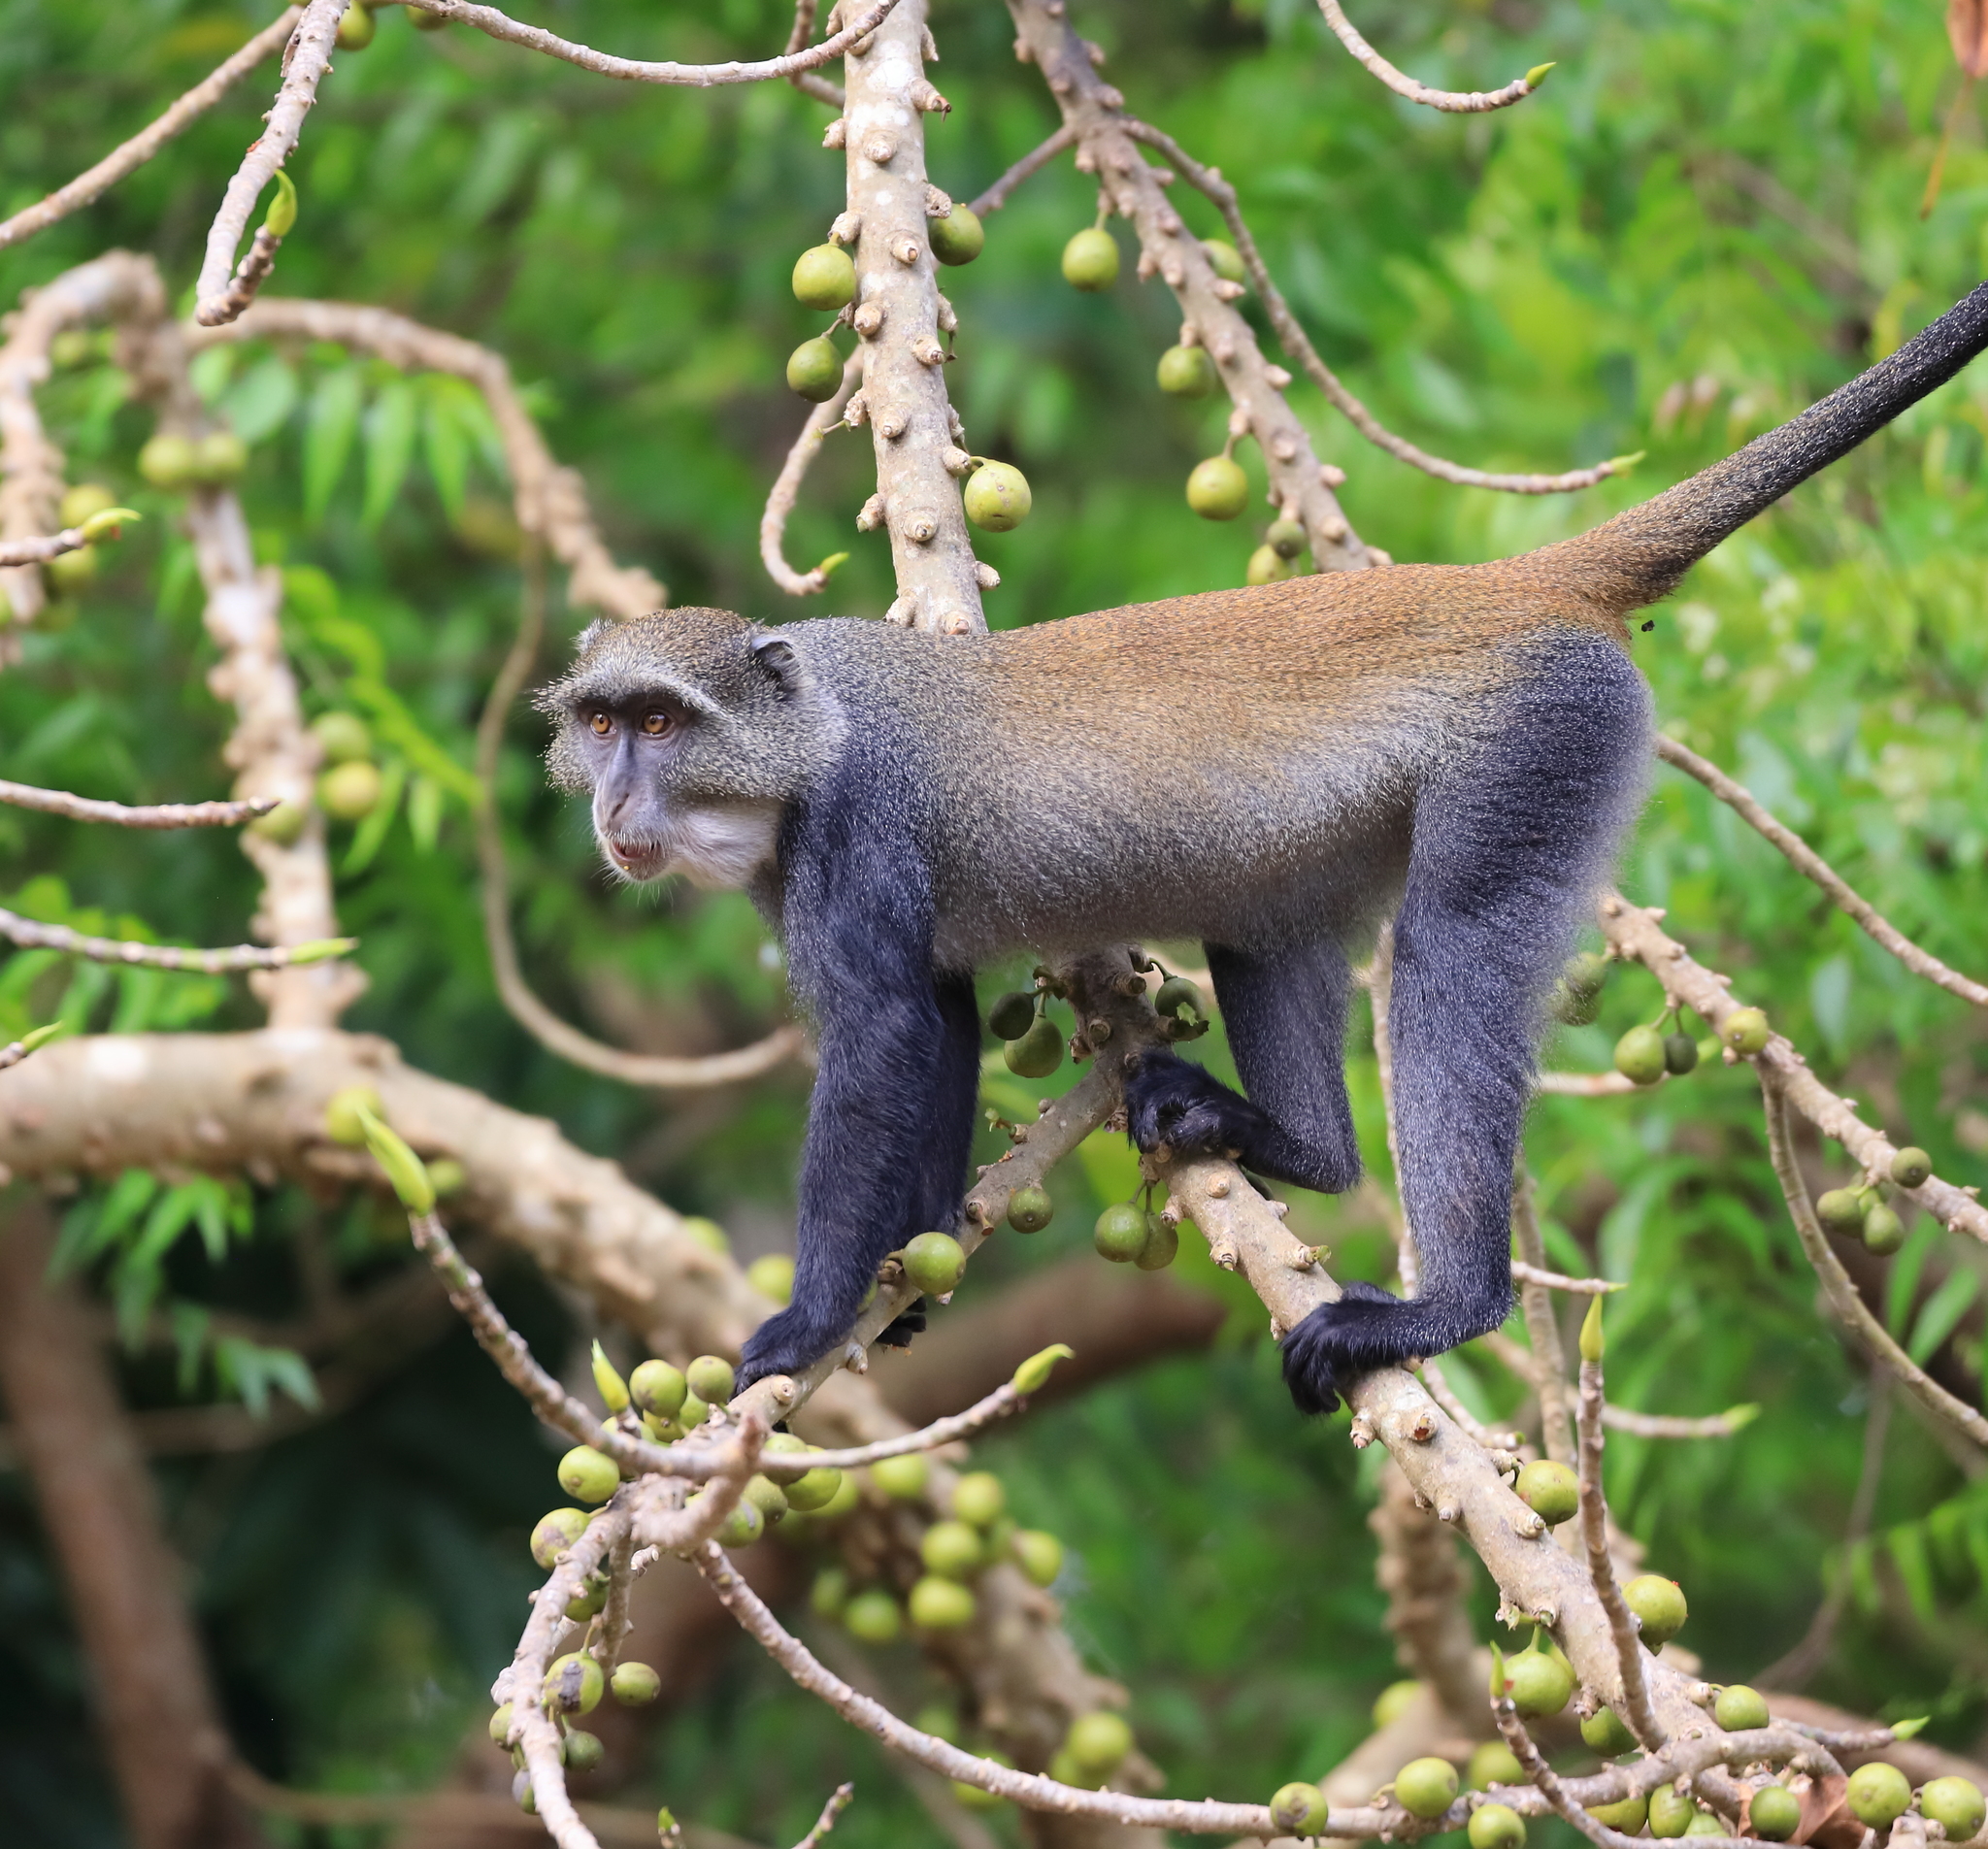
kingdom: Animalia
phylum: Chordata
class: Mammalia
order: Primates
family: Cercopithecidae
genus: Cercopithecus
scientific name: Cercopithecus mitis
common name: Blue monkey
